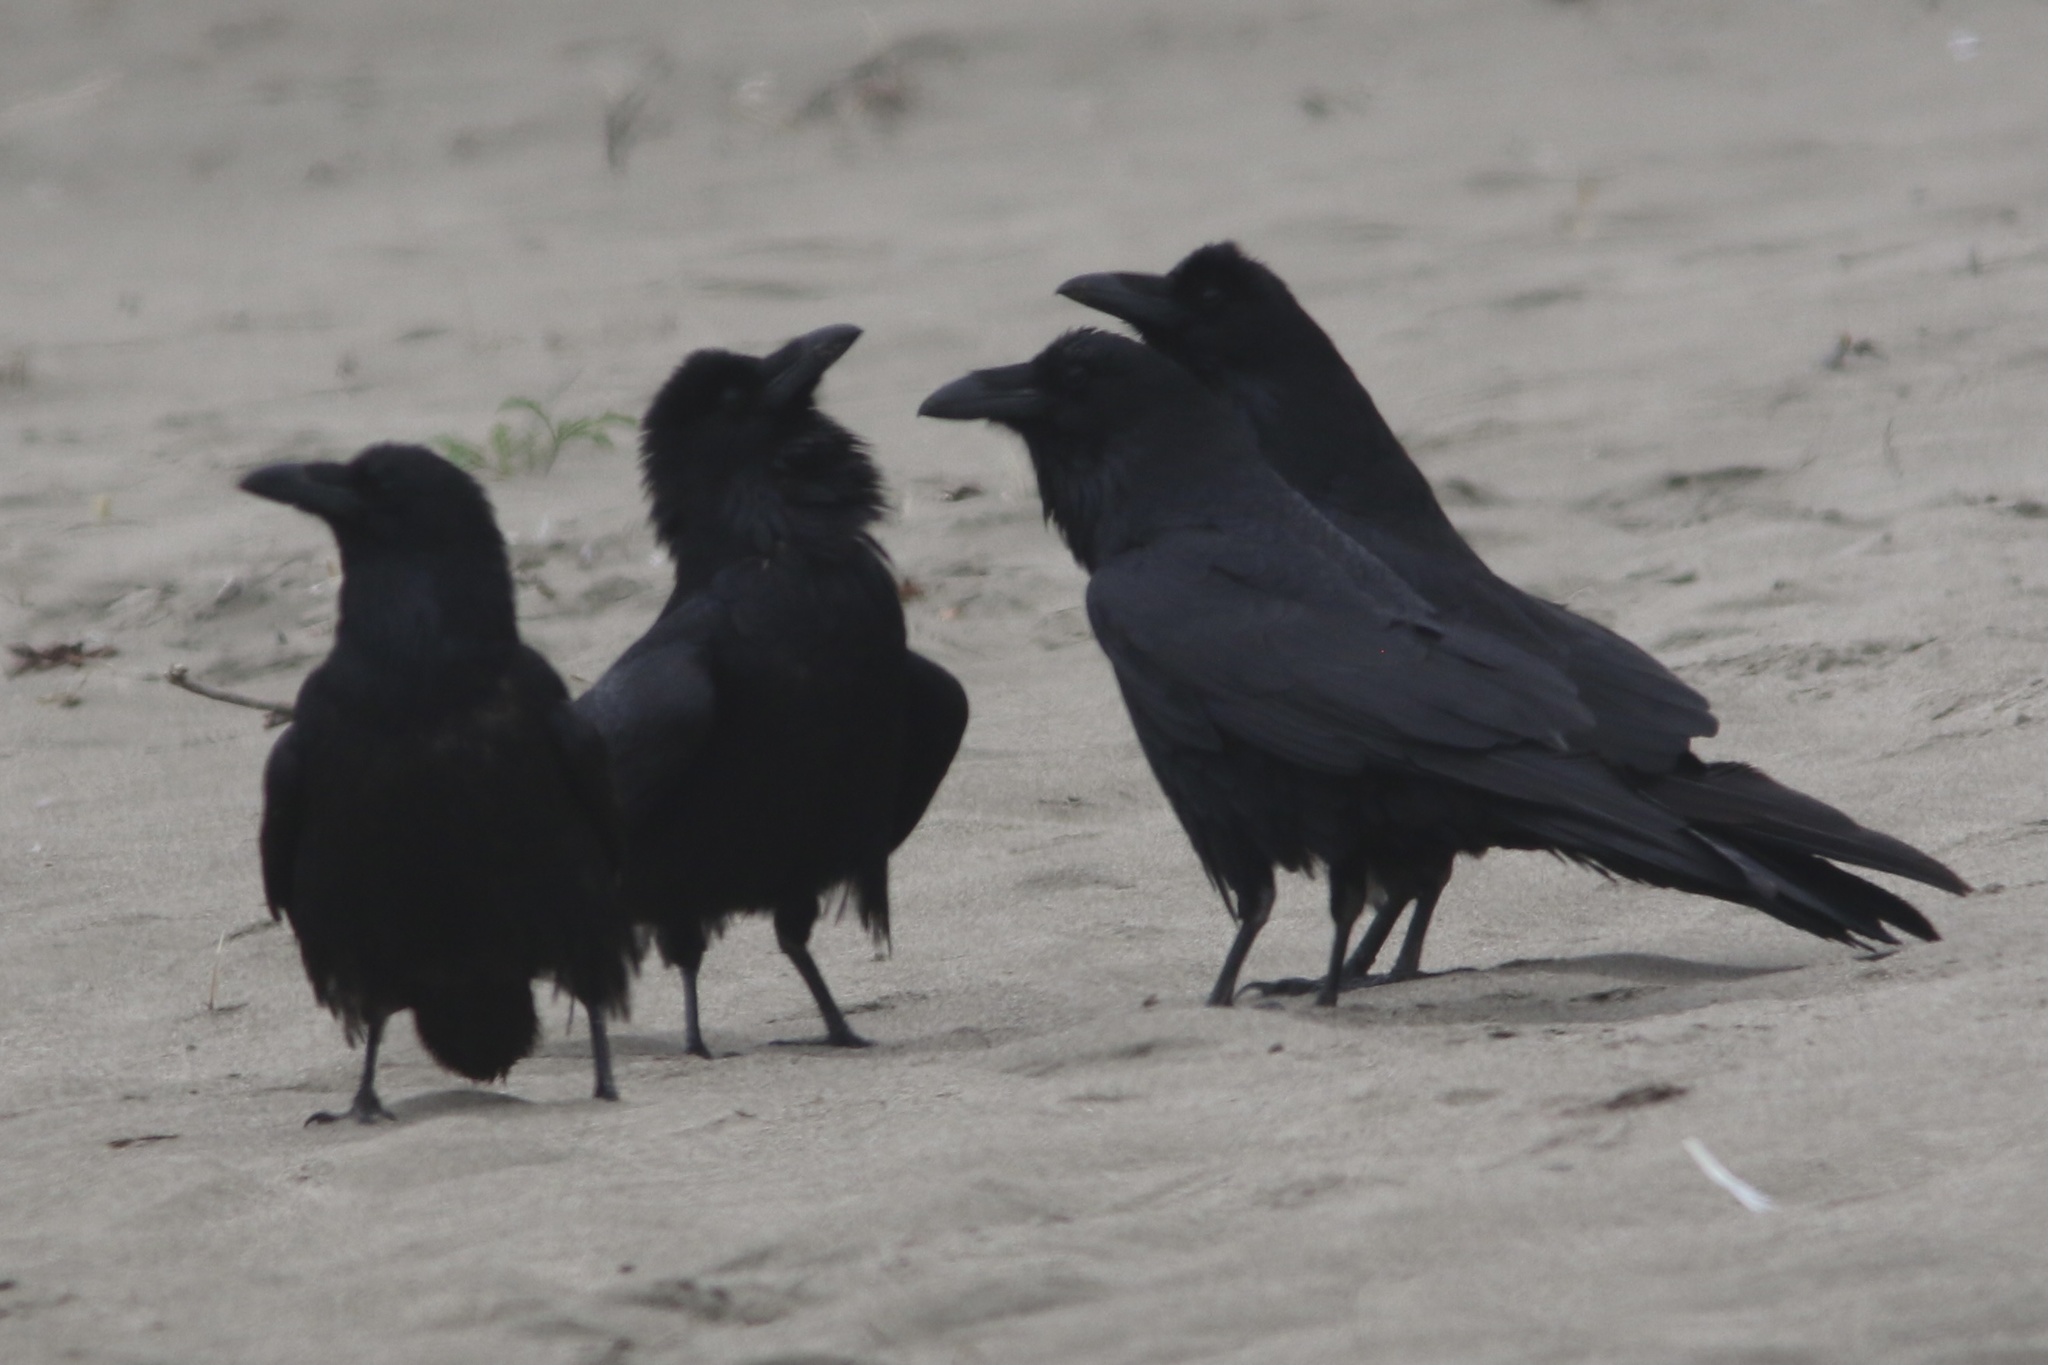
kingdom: Animalia
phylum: Chordata
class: Aves
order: Passeriformes
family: Corvidae
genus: Corvus
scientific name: Corvus corax
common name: Common raven
